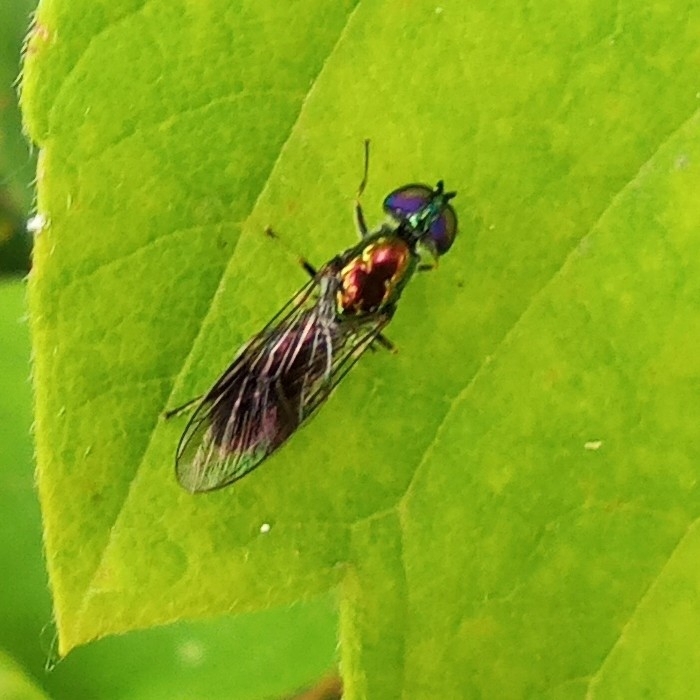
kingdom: Animalia
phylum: Arthropoda
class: Insecta
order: Diptera
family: Stratiomyidae
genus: Sargus
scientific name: Sargus cuprarius
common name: Soldier fly
